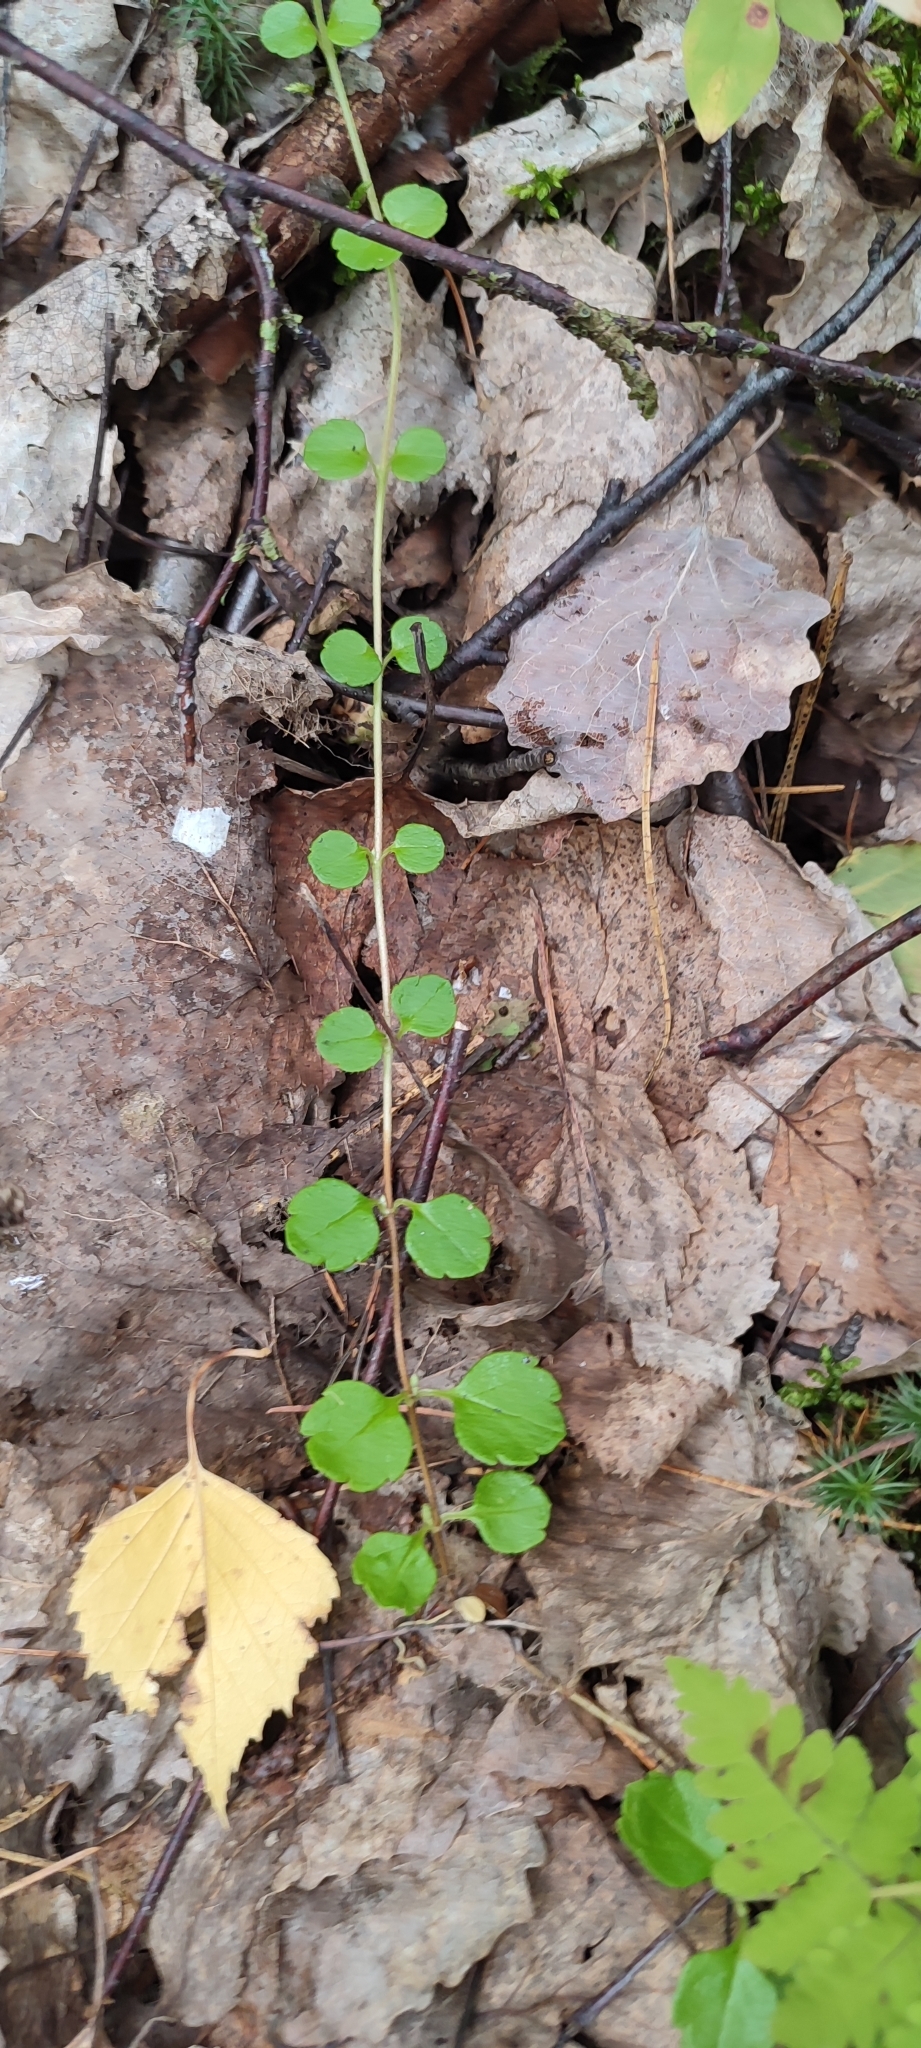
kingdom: Plantae
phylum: Tracheophyta
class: Magnoliopsida
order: Dipsacales
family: Caprifoliaceae
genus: Linnaea
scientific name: Linnaea borealis
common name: Twinflower
